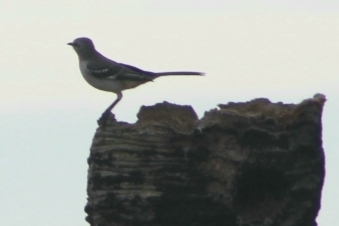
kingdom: Animalia
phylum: Chordata
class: Aves
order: Passeriformes
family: Mimidae
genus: Mimus
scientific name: Mimus polyglottos
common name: Northern mockingbird
